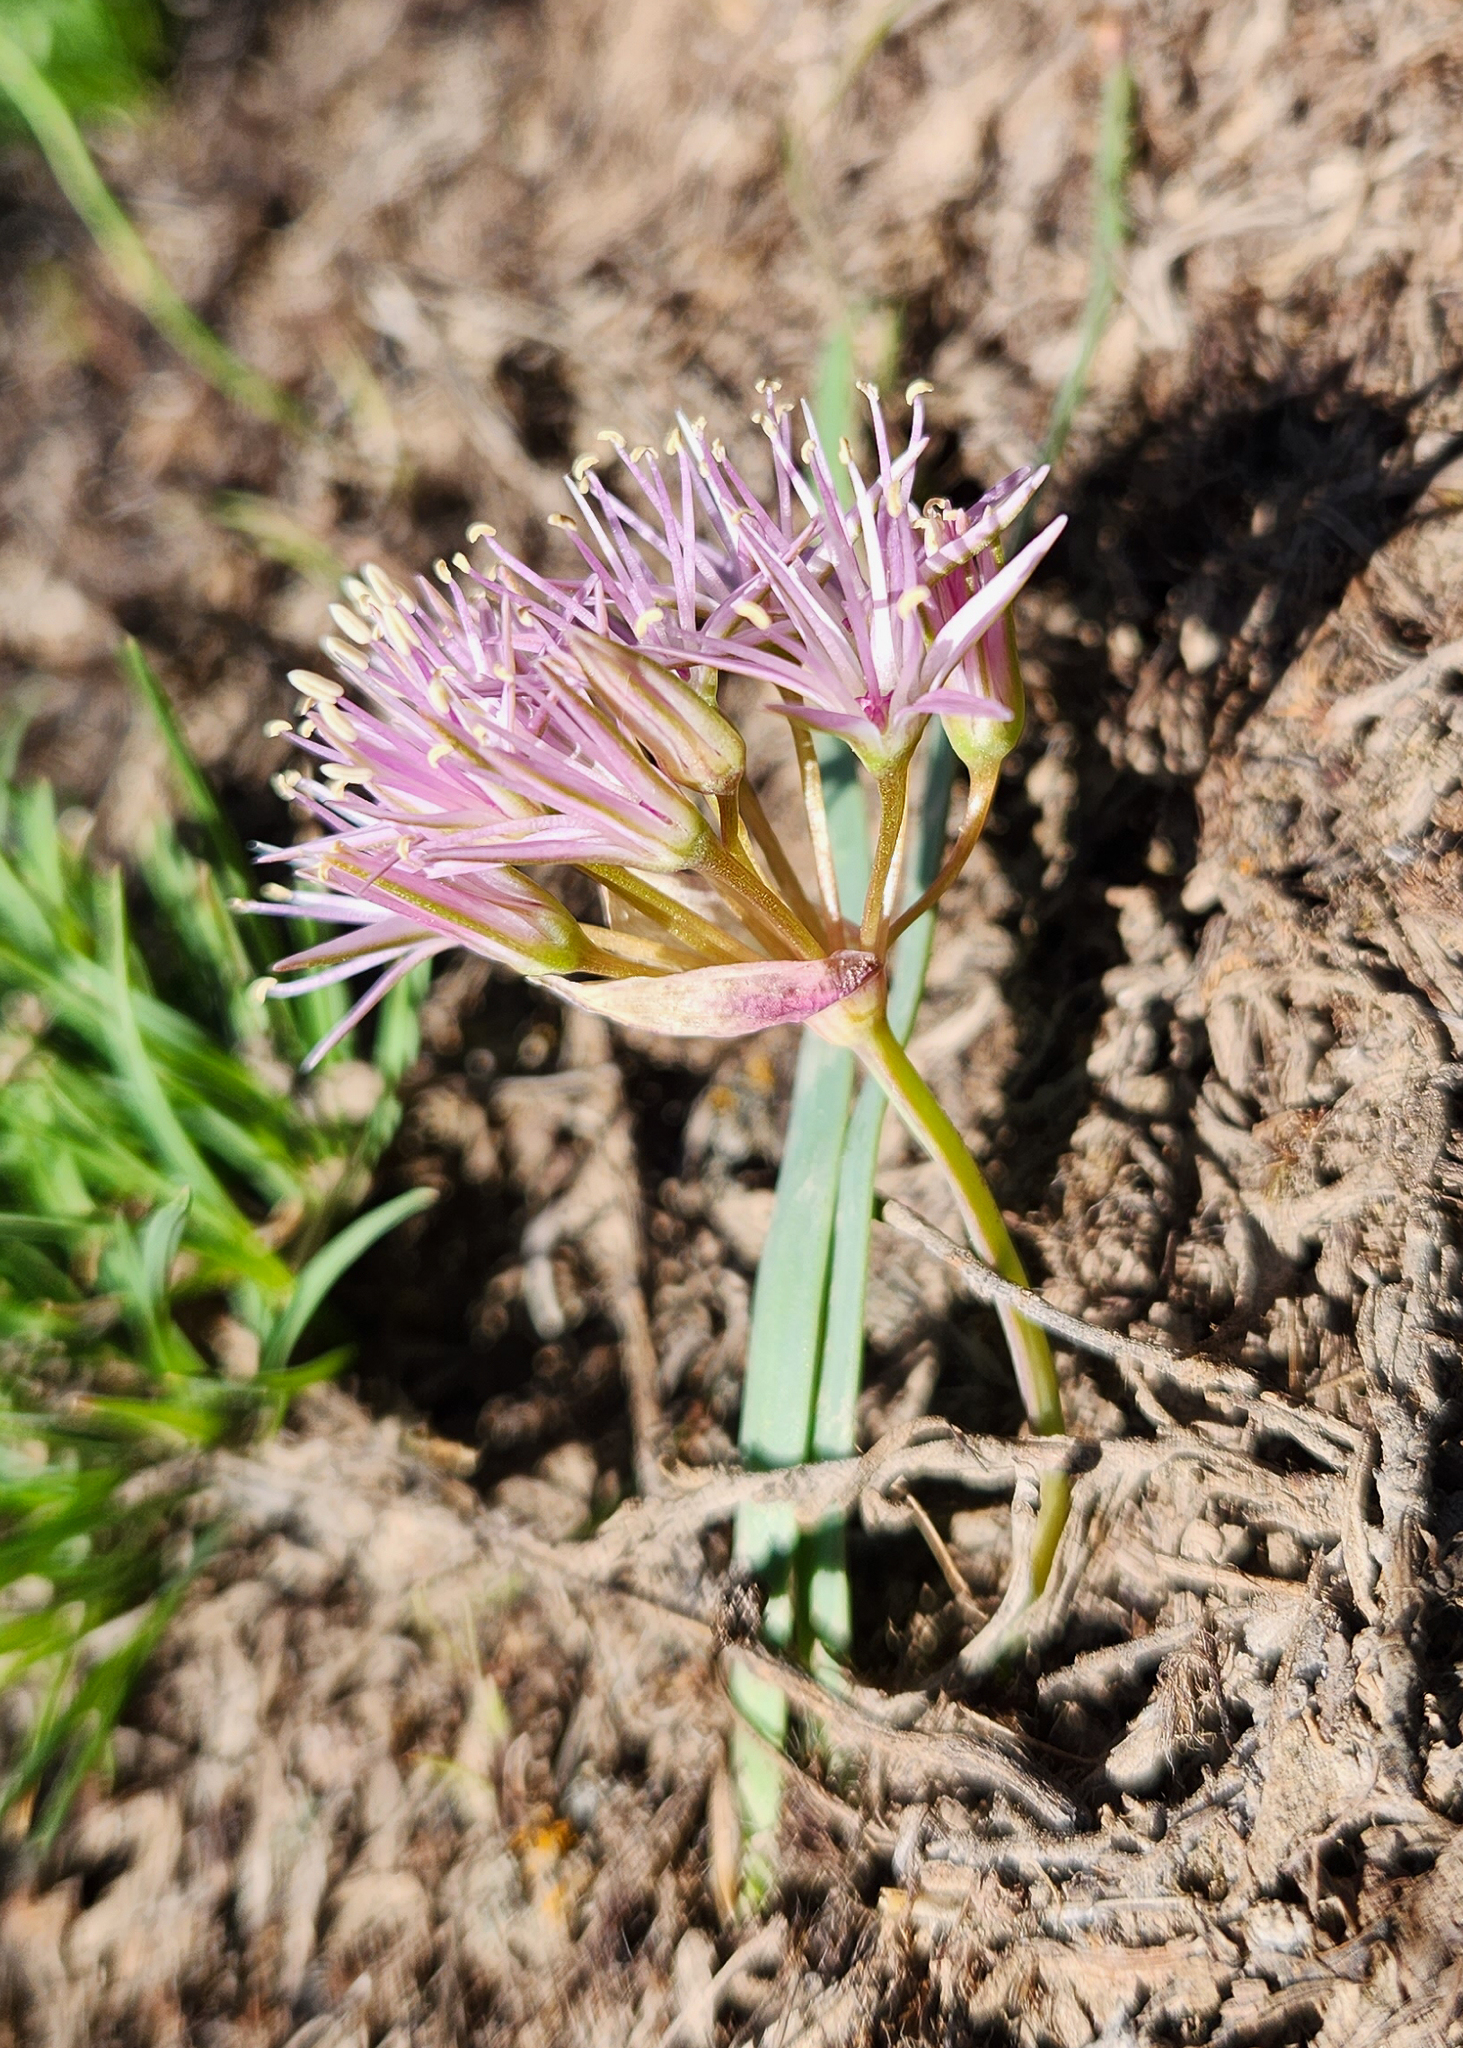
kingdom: Plantae
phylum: Tracheophyta
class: Liliopsida
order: Asparagales
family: Amaryllidaceae
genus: Allium
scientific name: Allium anceps
